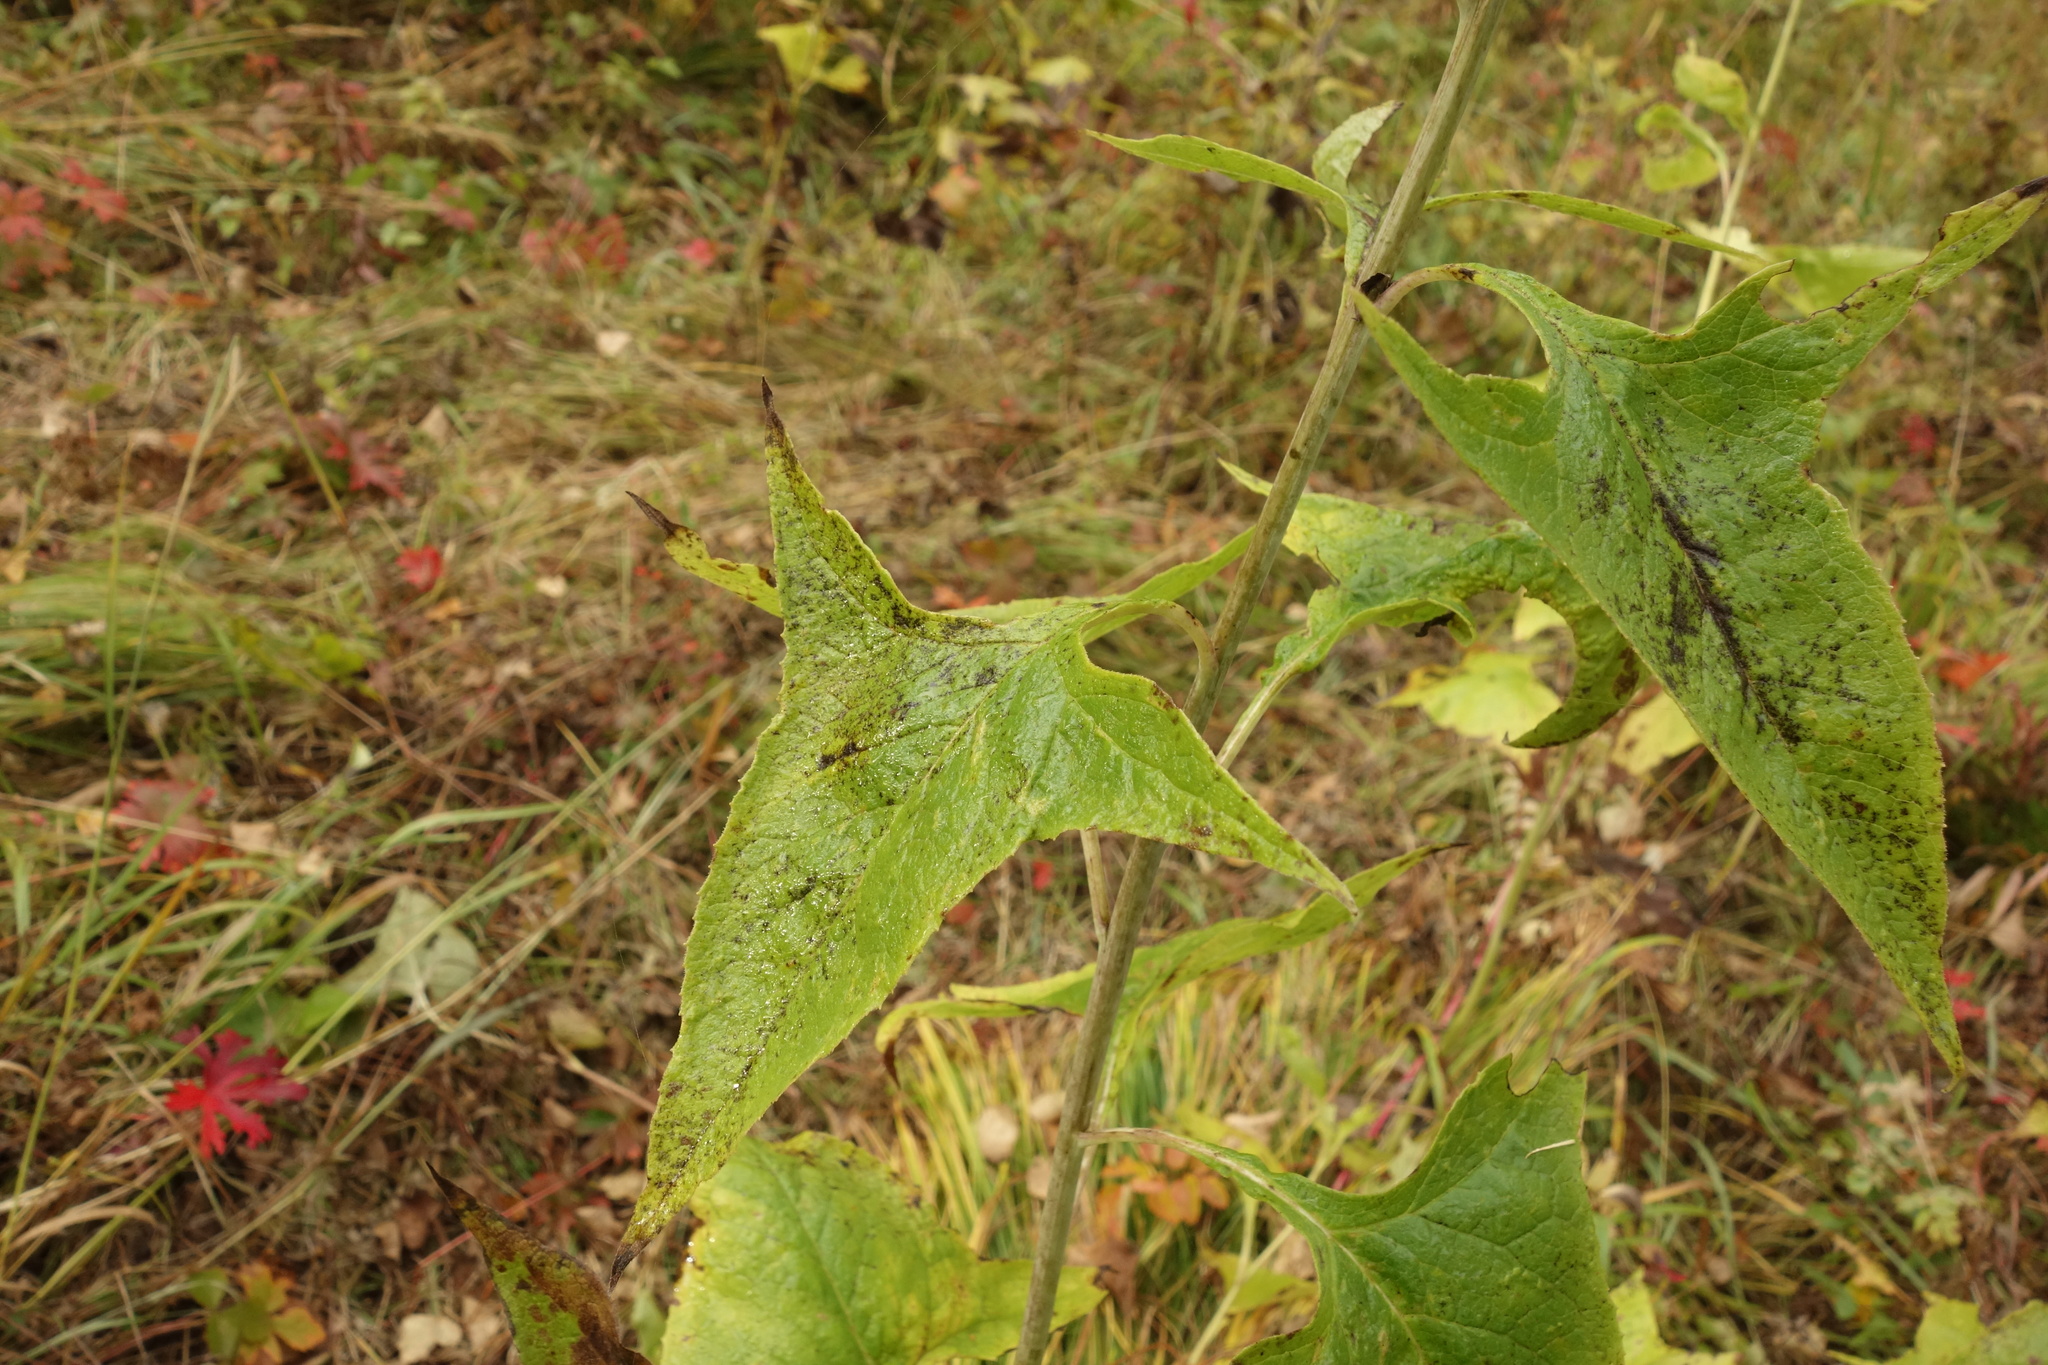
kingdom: Plantae
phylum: Tracheophyta
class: Magnoliopsida
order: Asterales
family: Asteraceae
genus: Parasenecio
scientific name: Parasenecio hastatus
